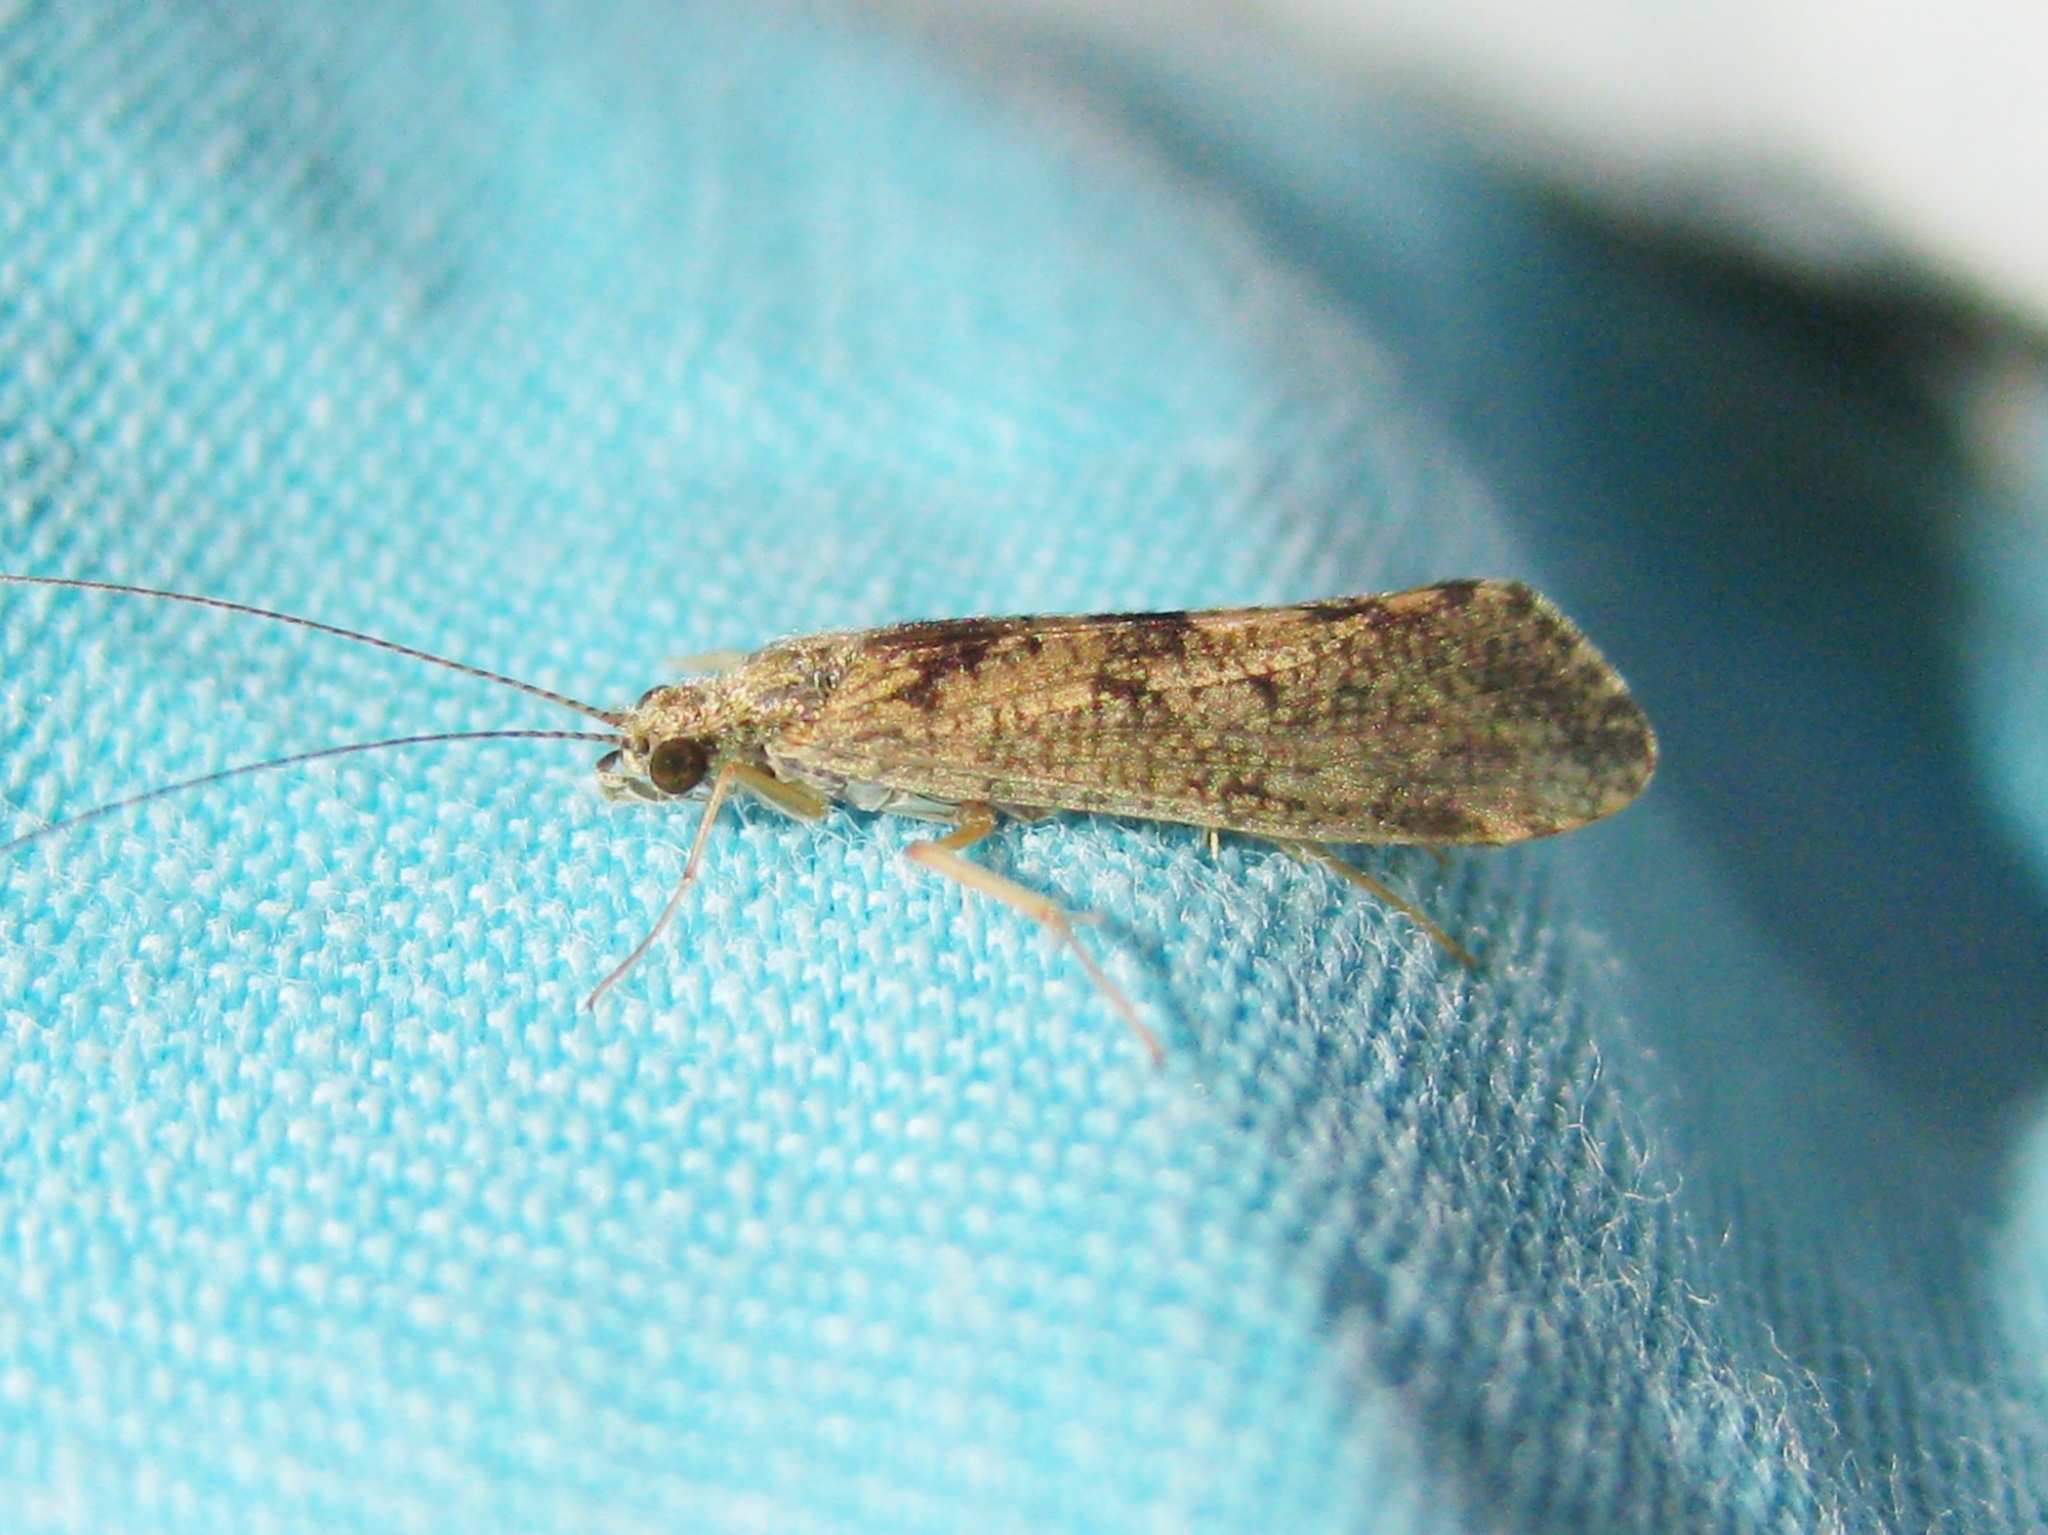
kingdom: Animalia
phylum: Arthropoda
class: Insecta
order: Trichoptera
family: Hydropsychidae
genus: Hydropsyche
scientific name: Hydropsyche
